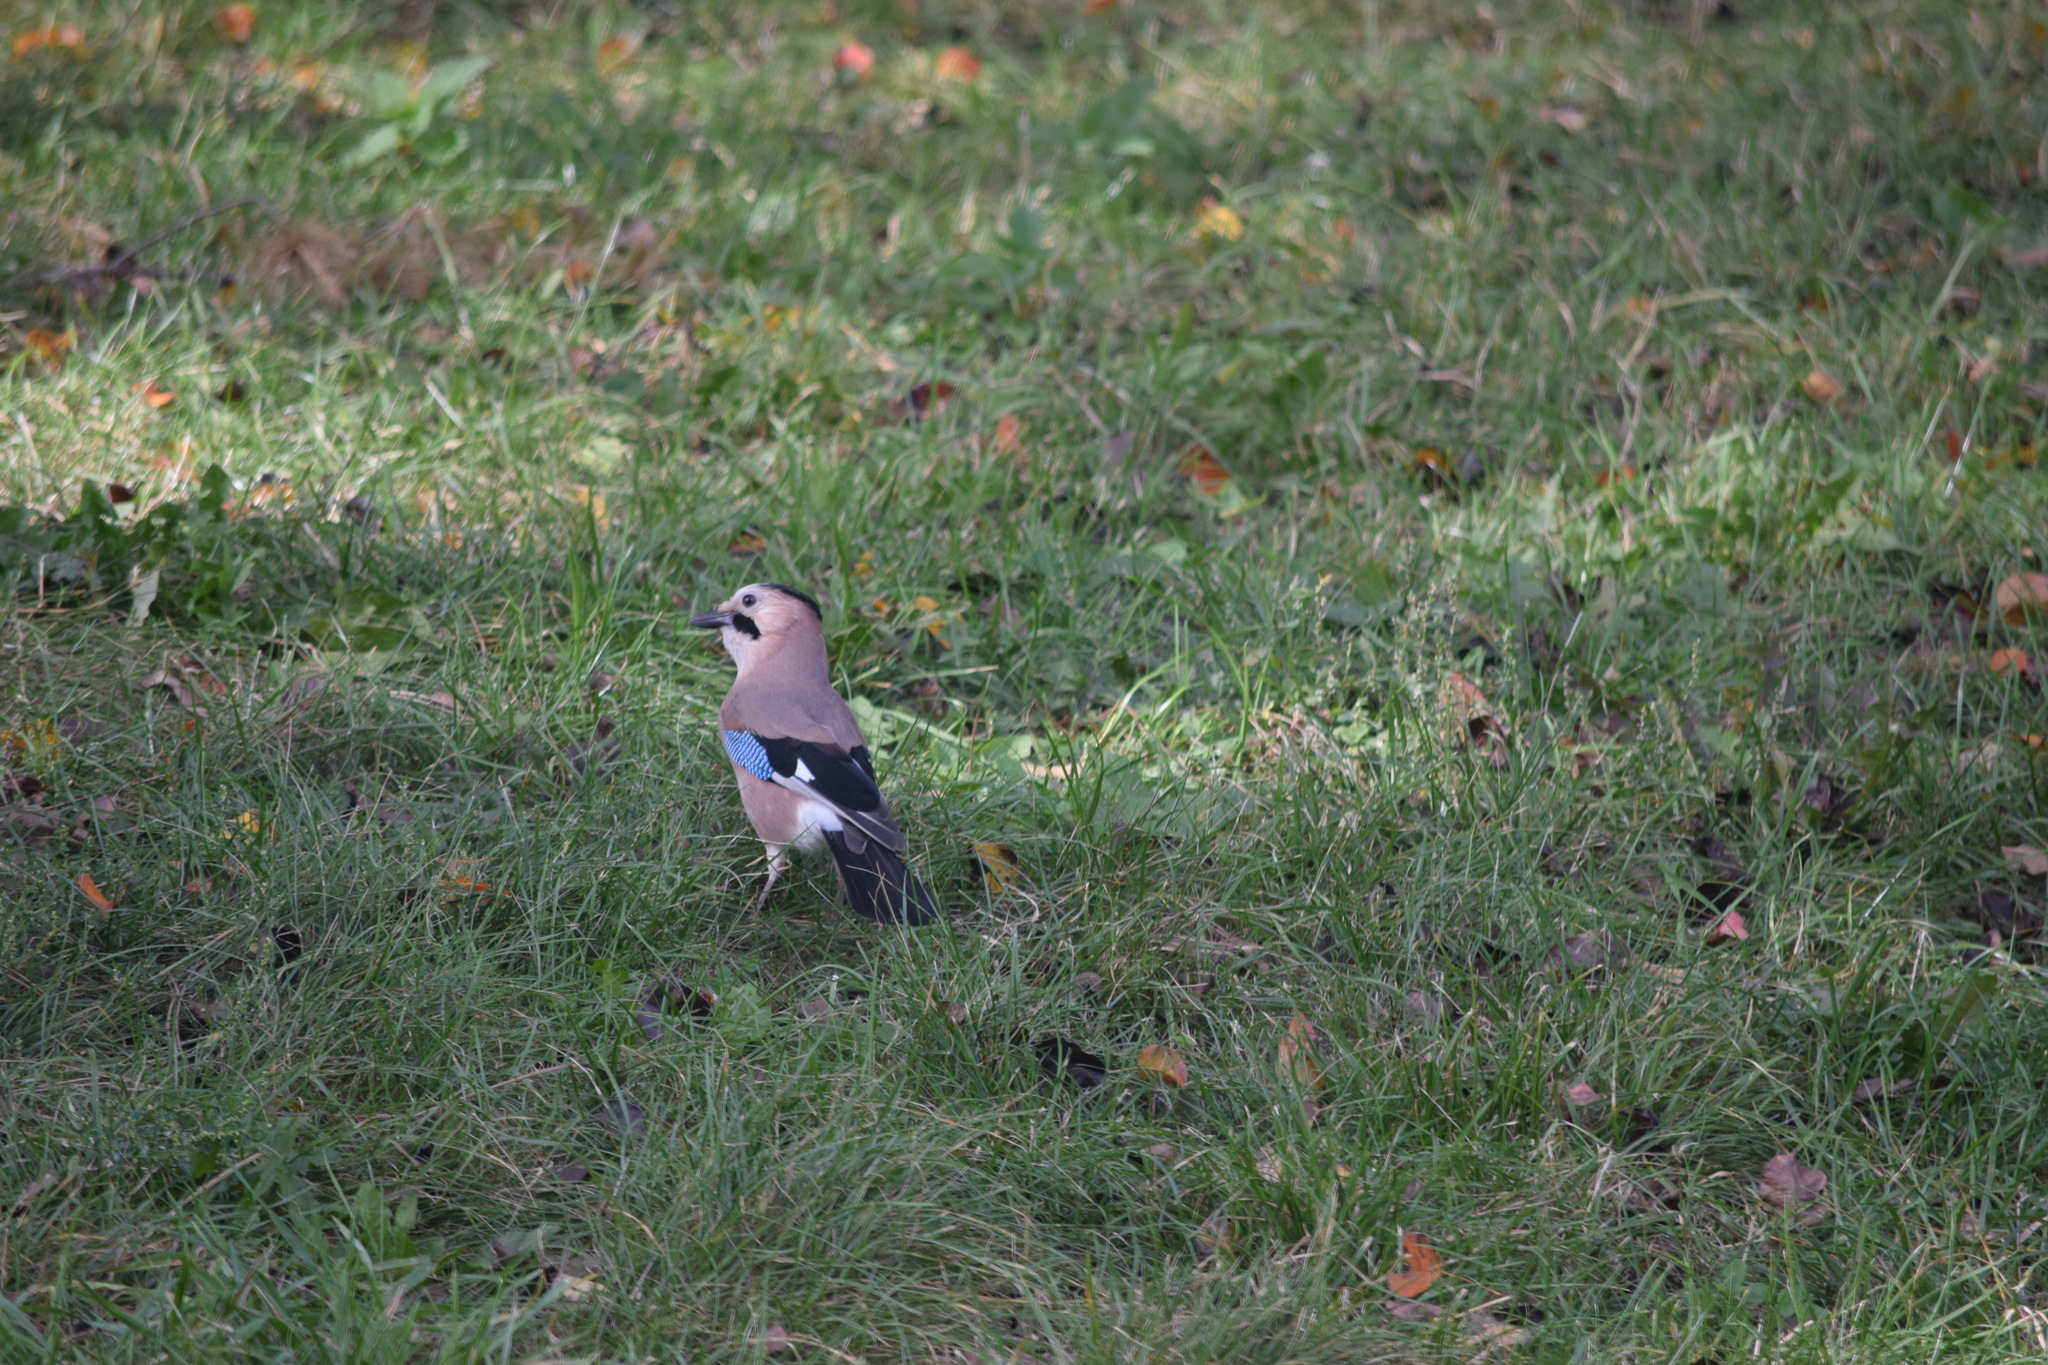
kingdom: Animalia
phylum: Chordata
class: Aves
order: Passeriformes
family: Corvidae
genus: Garrulus
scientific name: Garrulus glandarius
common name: Eurasian jay
